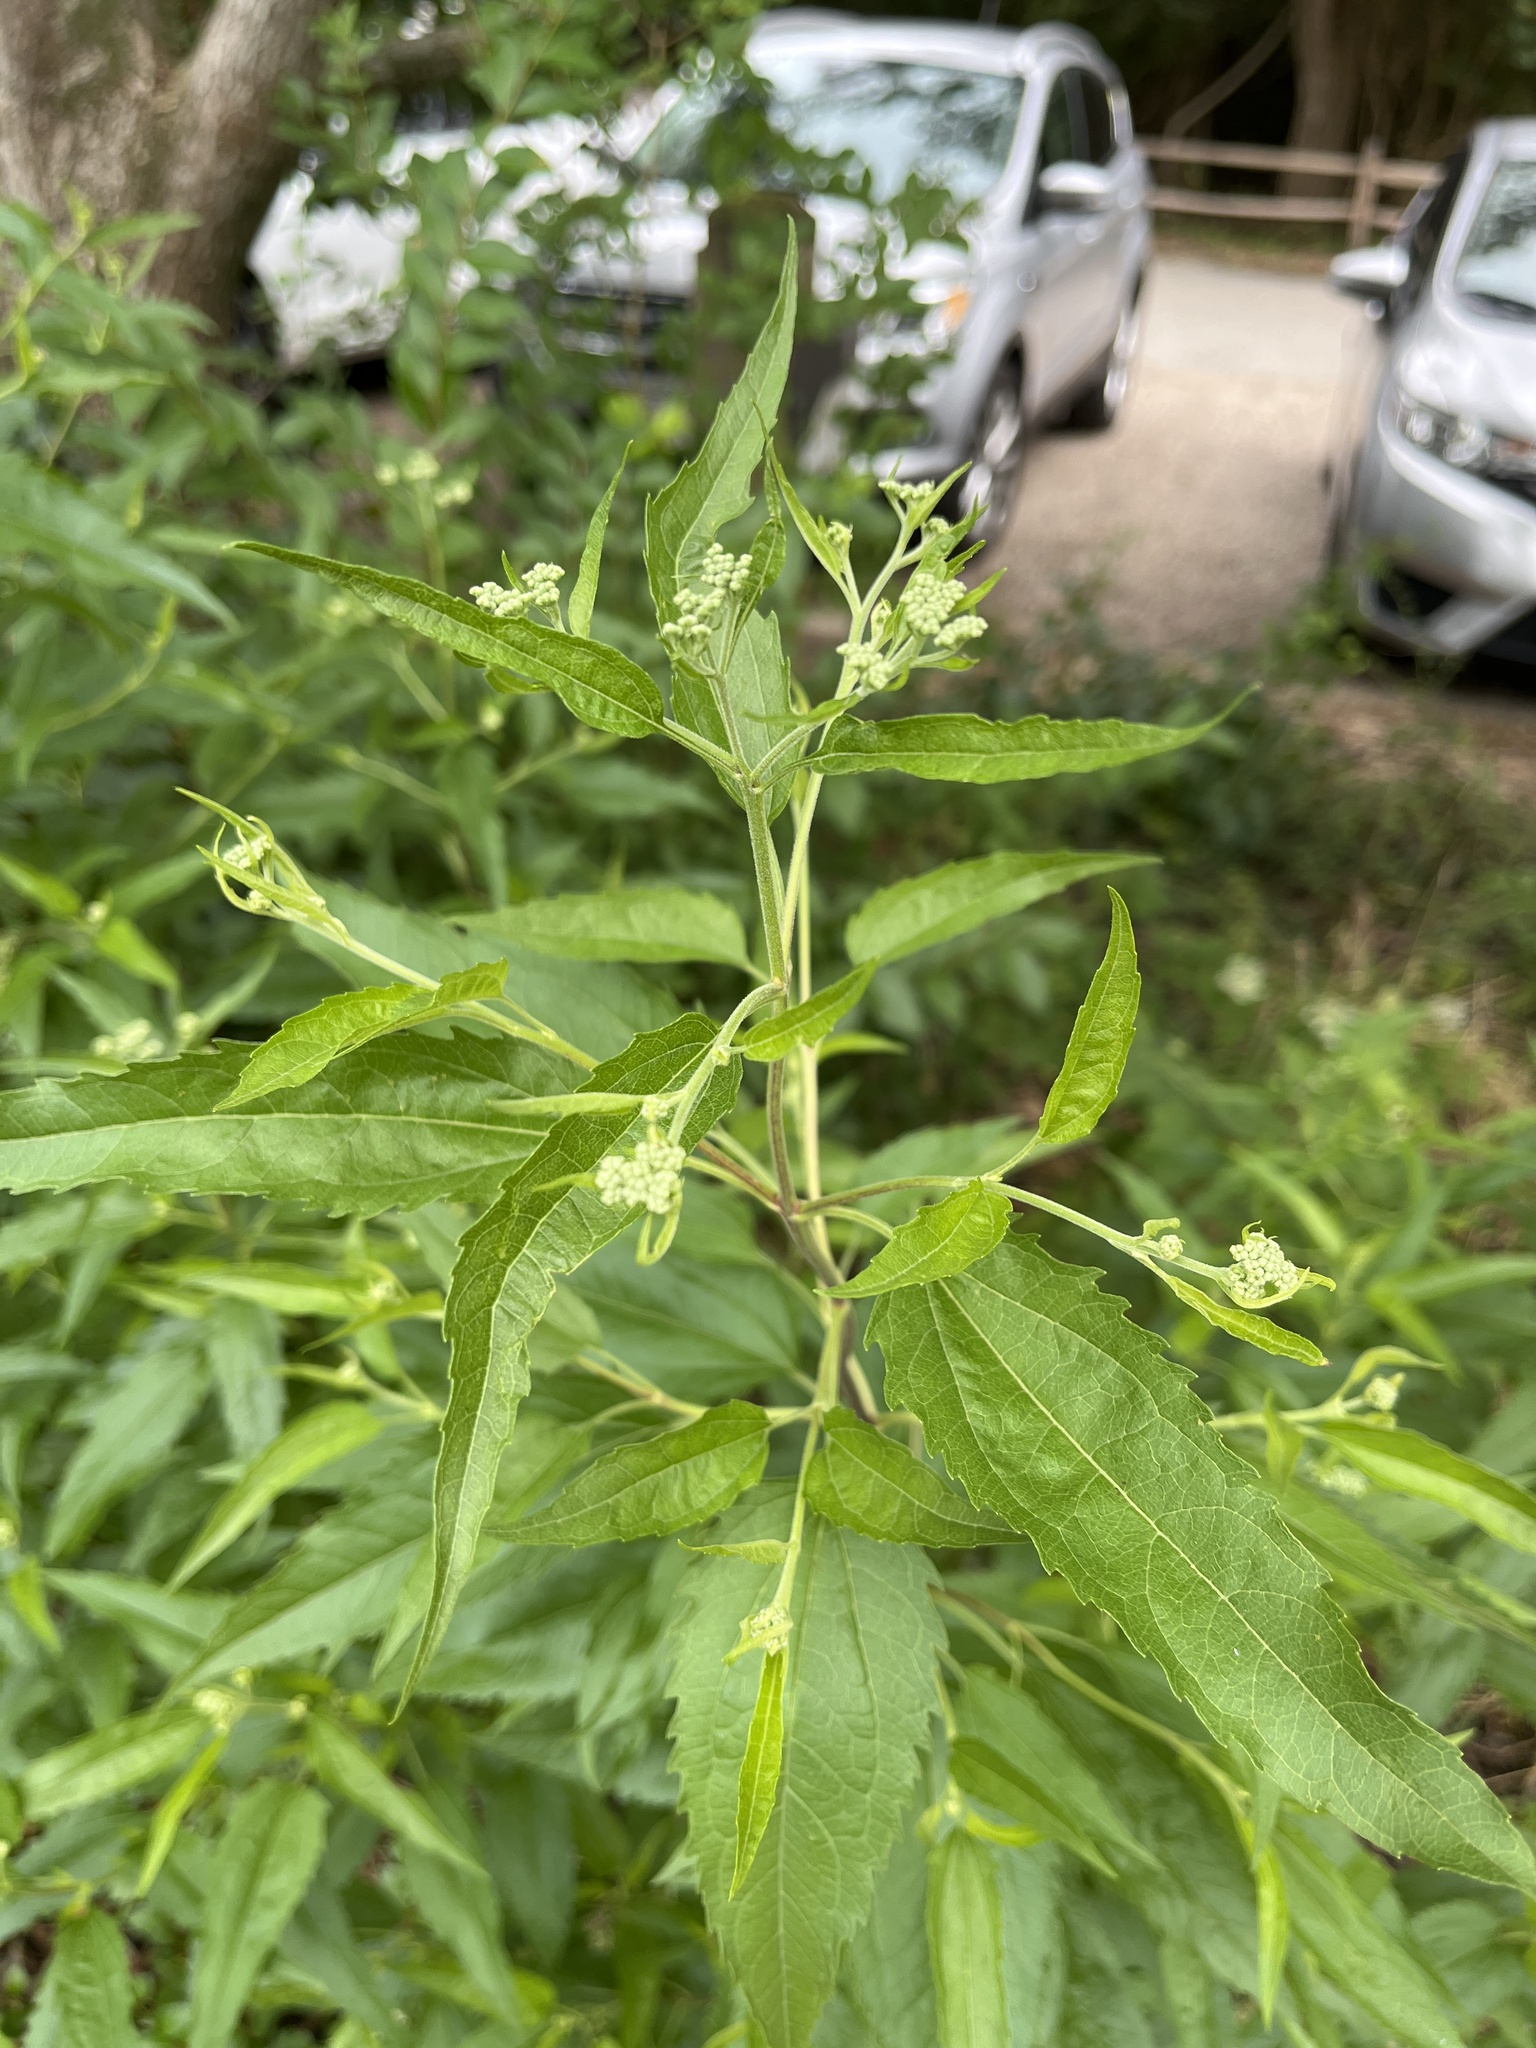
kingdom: Plantae
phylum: Tracheophyta
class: Magnoliopsida
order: Asterales
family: Asteraceae
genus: Eupatorium
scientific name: Eupatorium serotinum
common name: Late boneset
